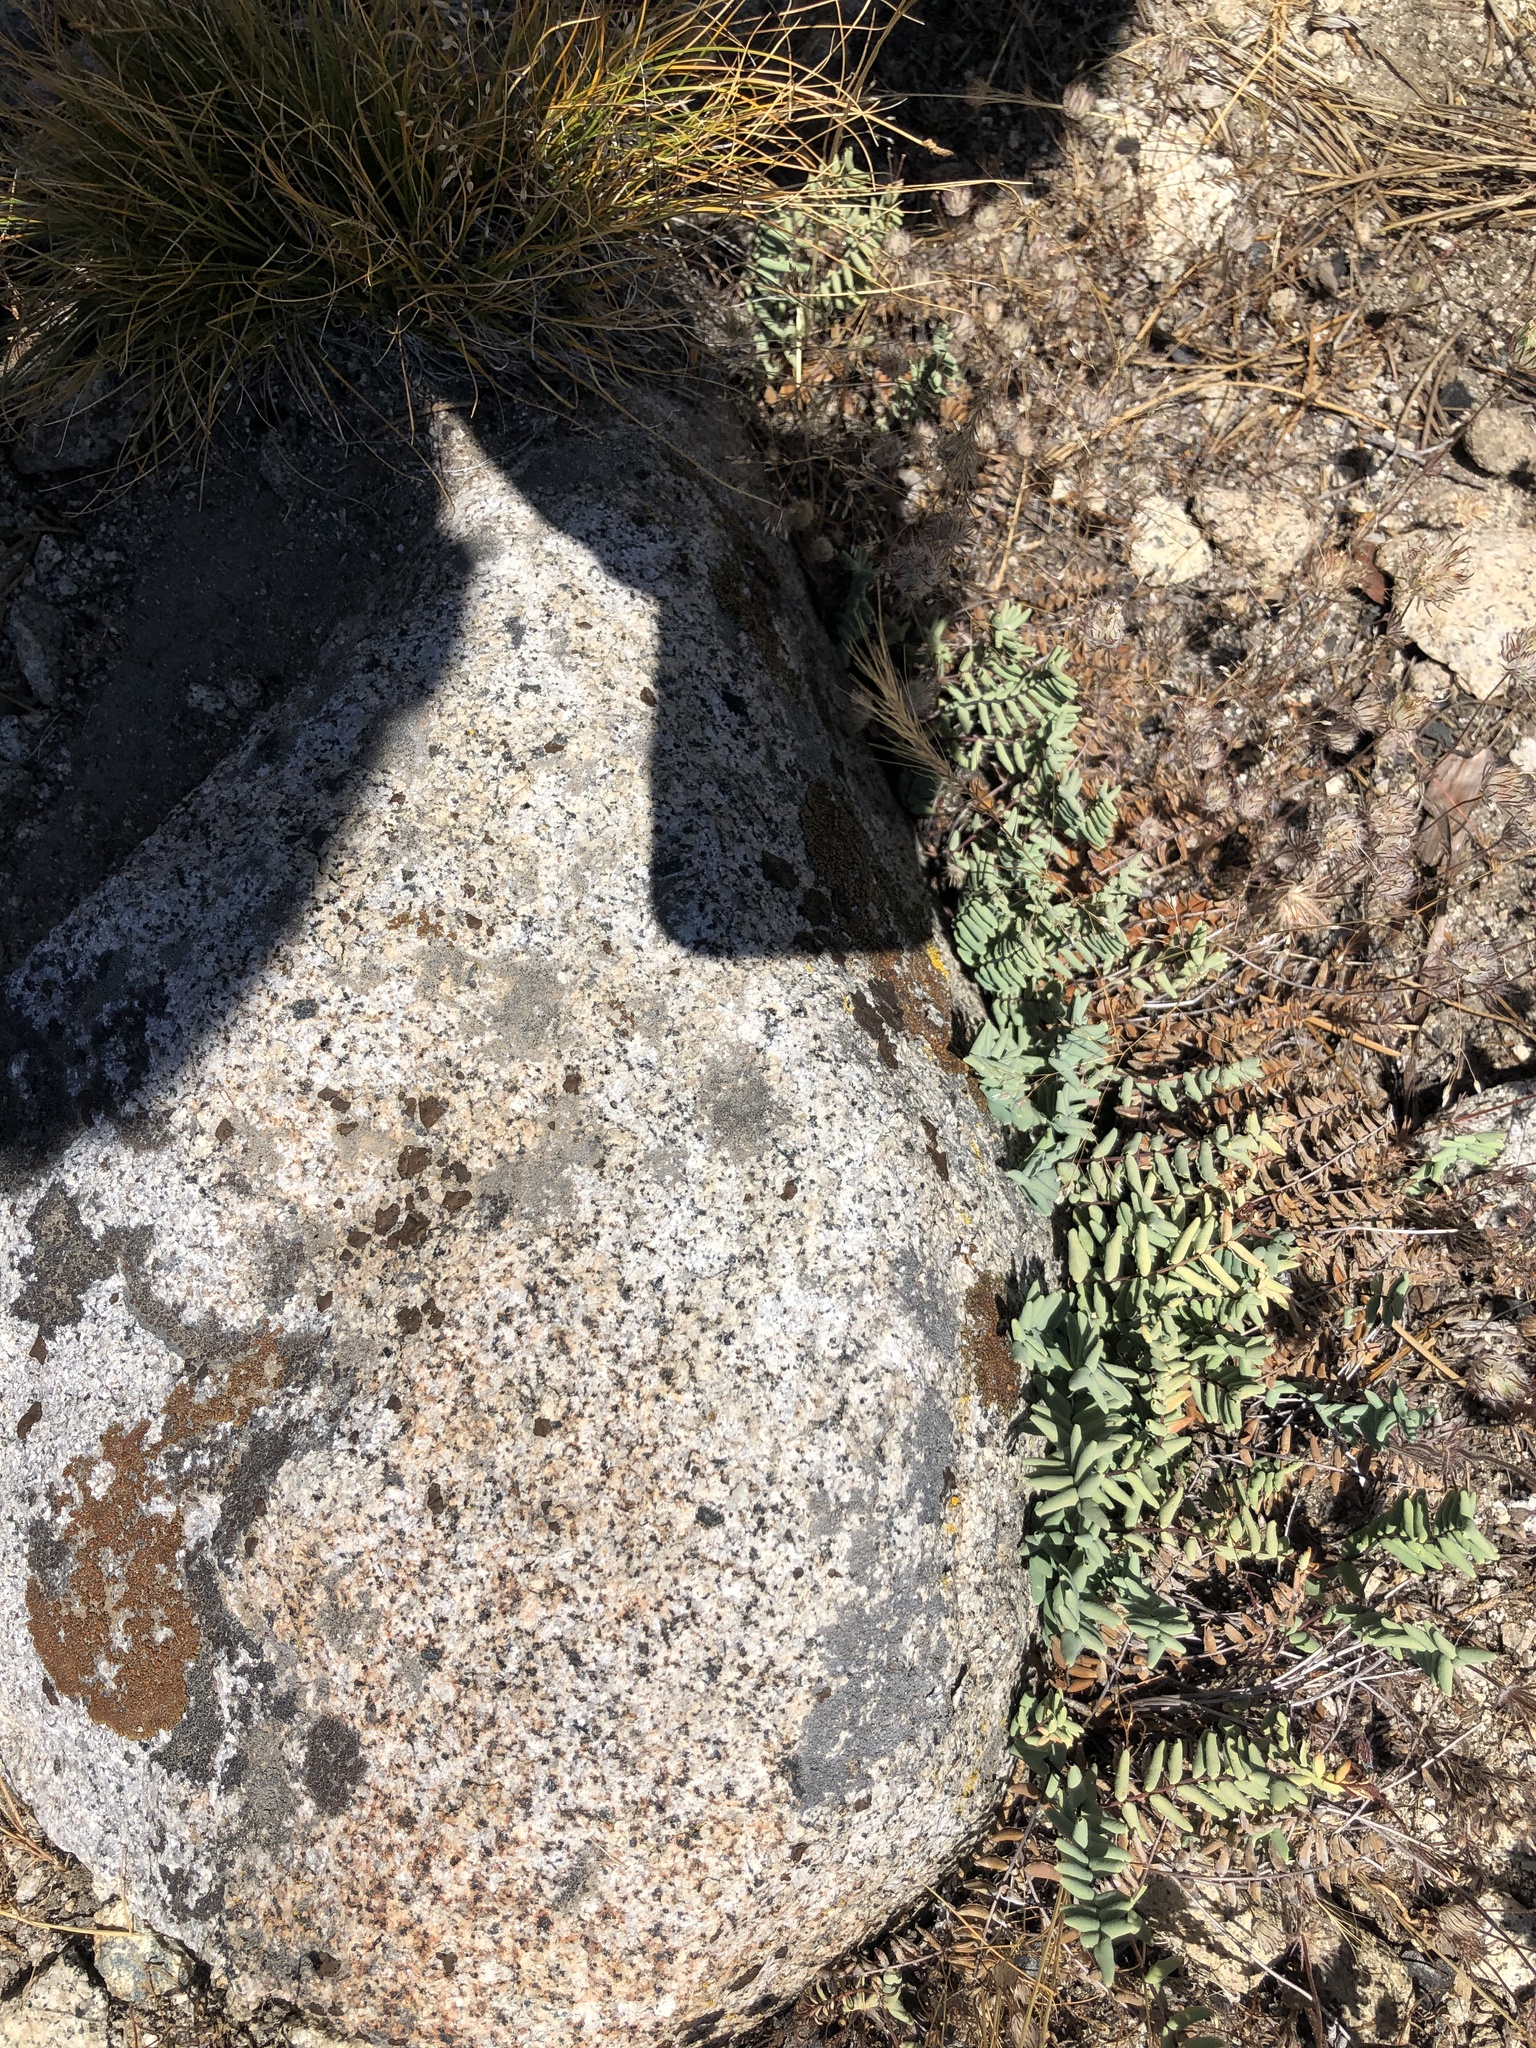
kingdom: Plantae
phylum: Tracheophyta
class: Polypodiopsida
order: Polypodiales
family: Pteridaceae
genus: Pellaea
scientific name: Pellaea bridgesii
